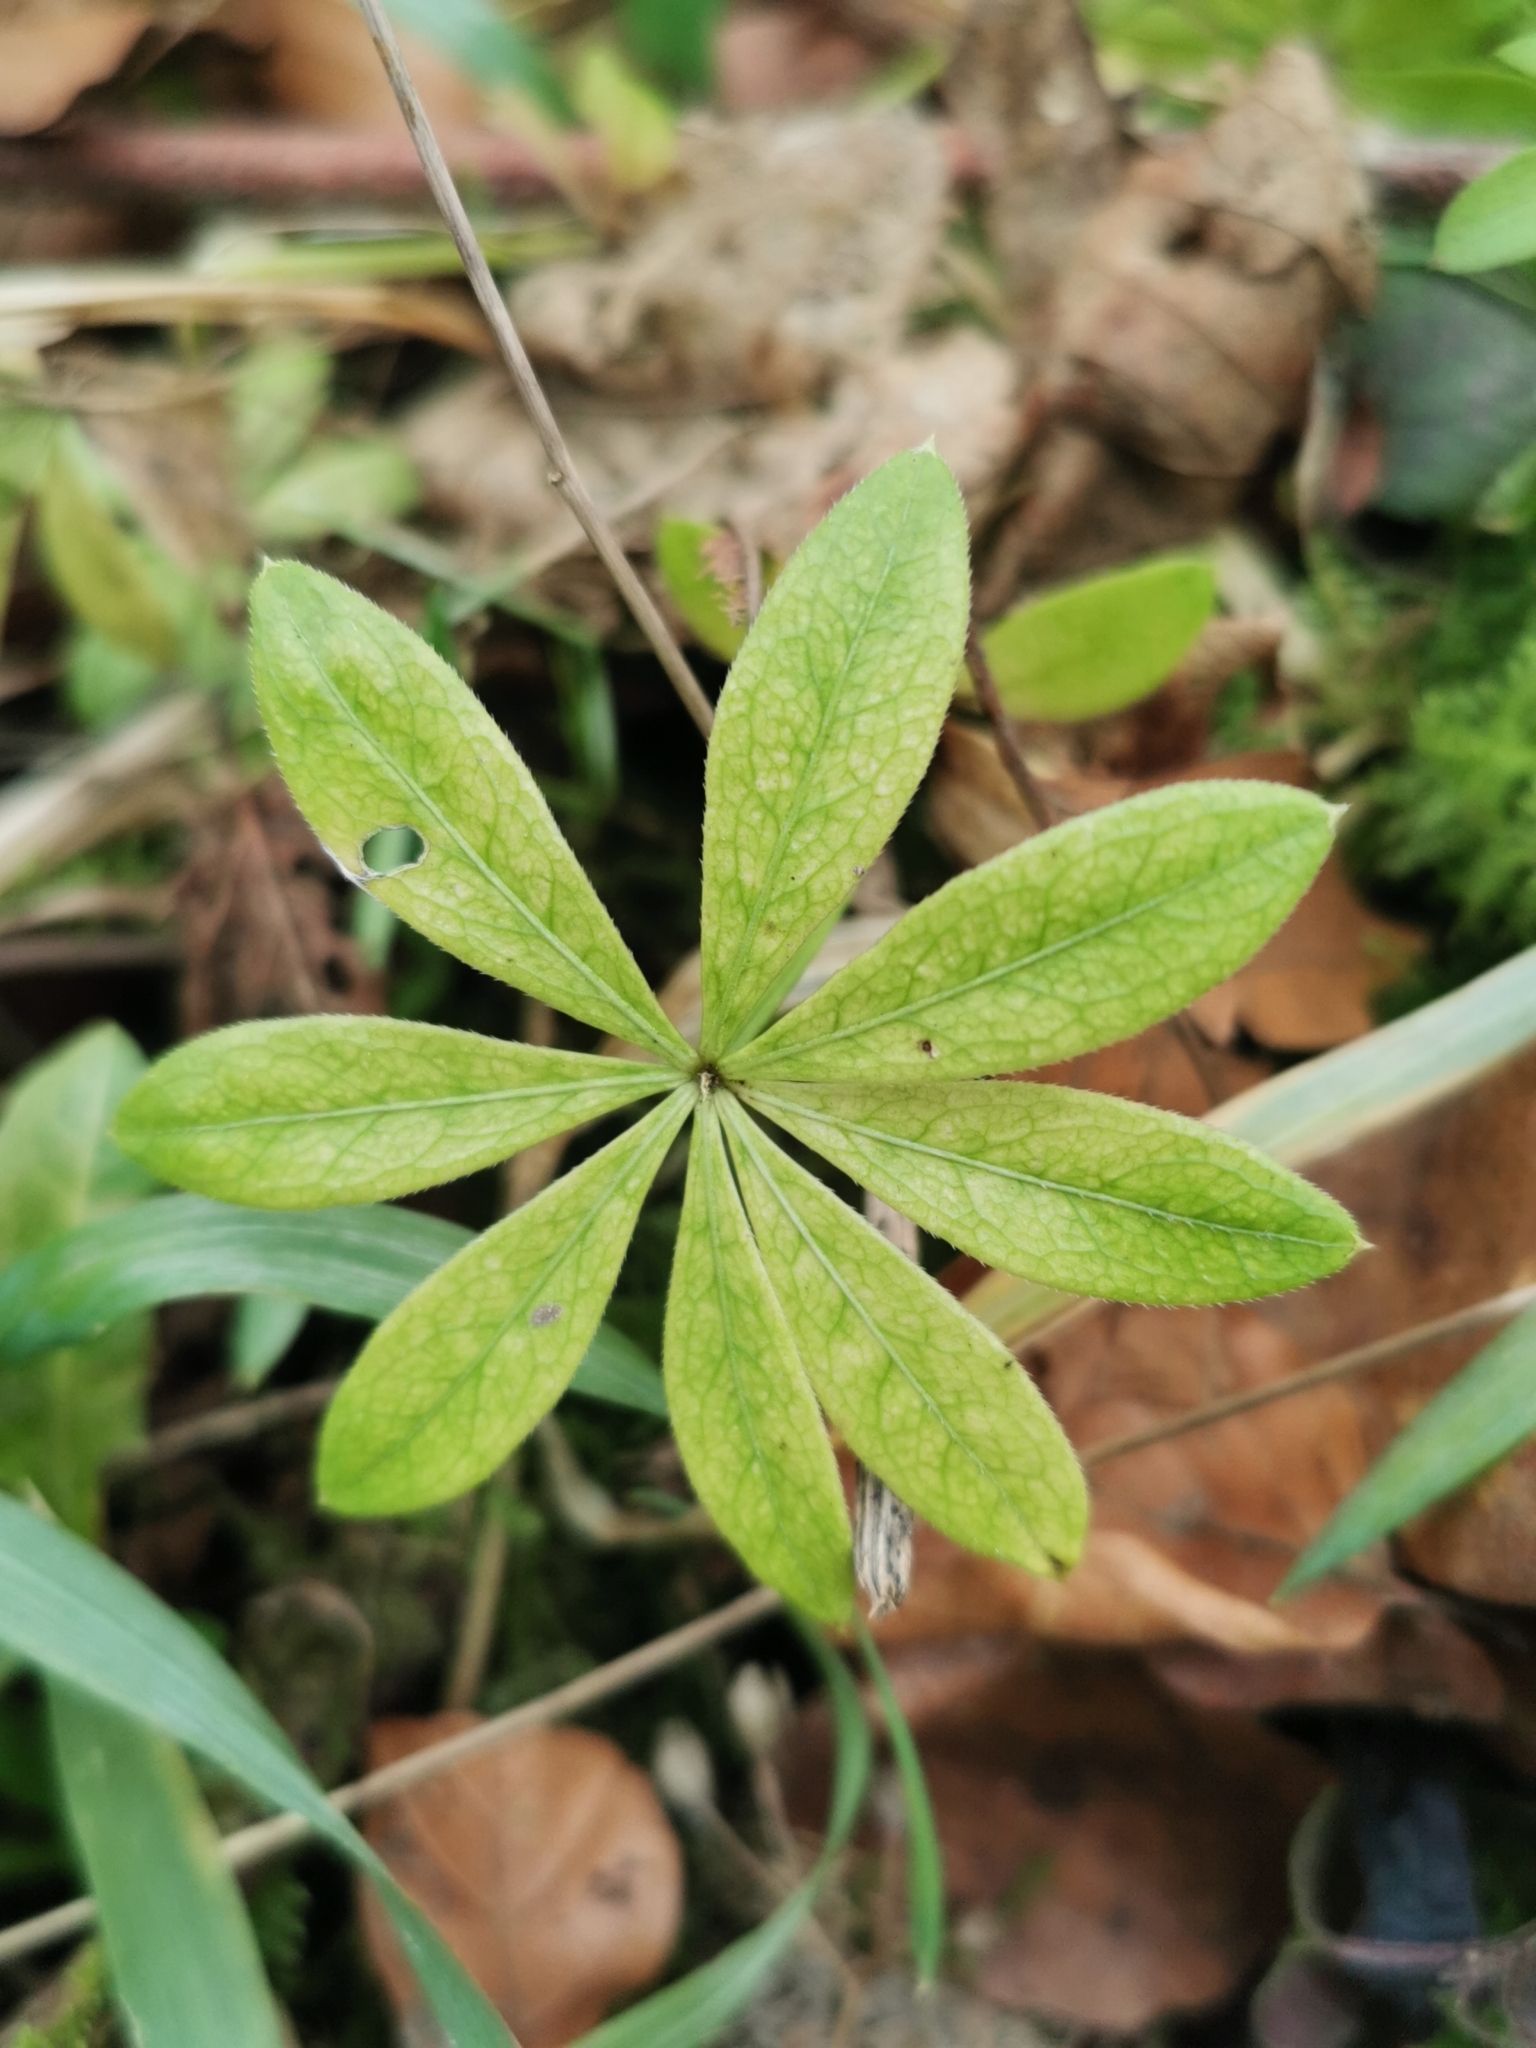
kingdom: Plantae
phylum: Tracheophyta
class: Magnoliopsida
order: Gentianales
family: Rubiaceae
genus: Galium
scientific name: Galium odoratum
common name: Sweet woodruff
